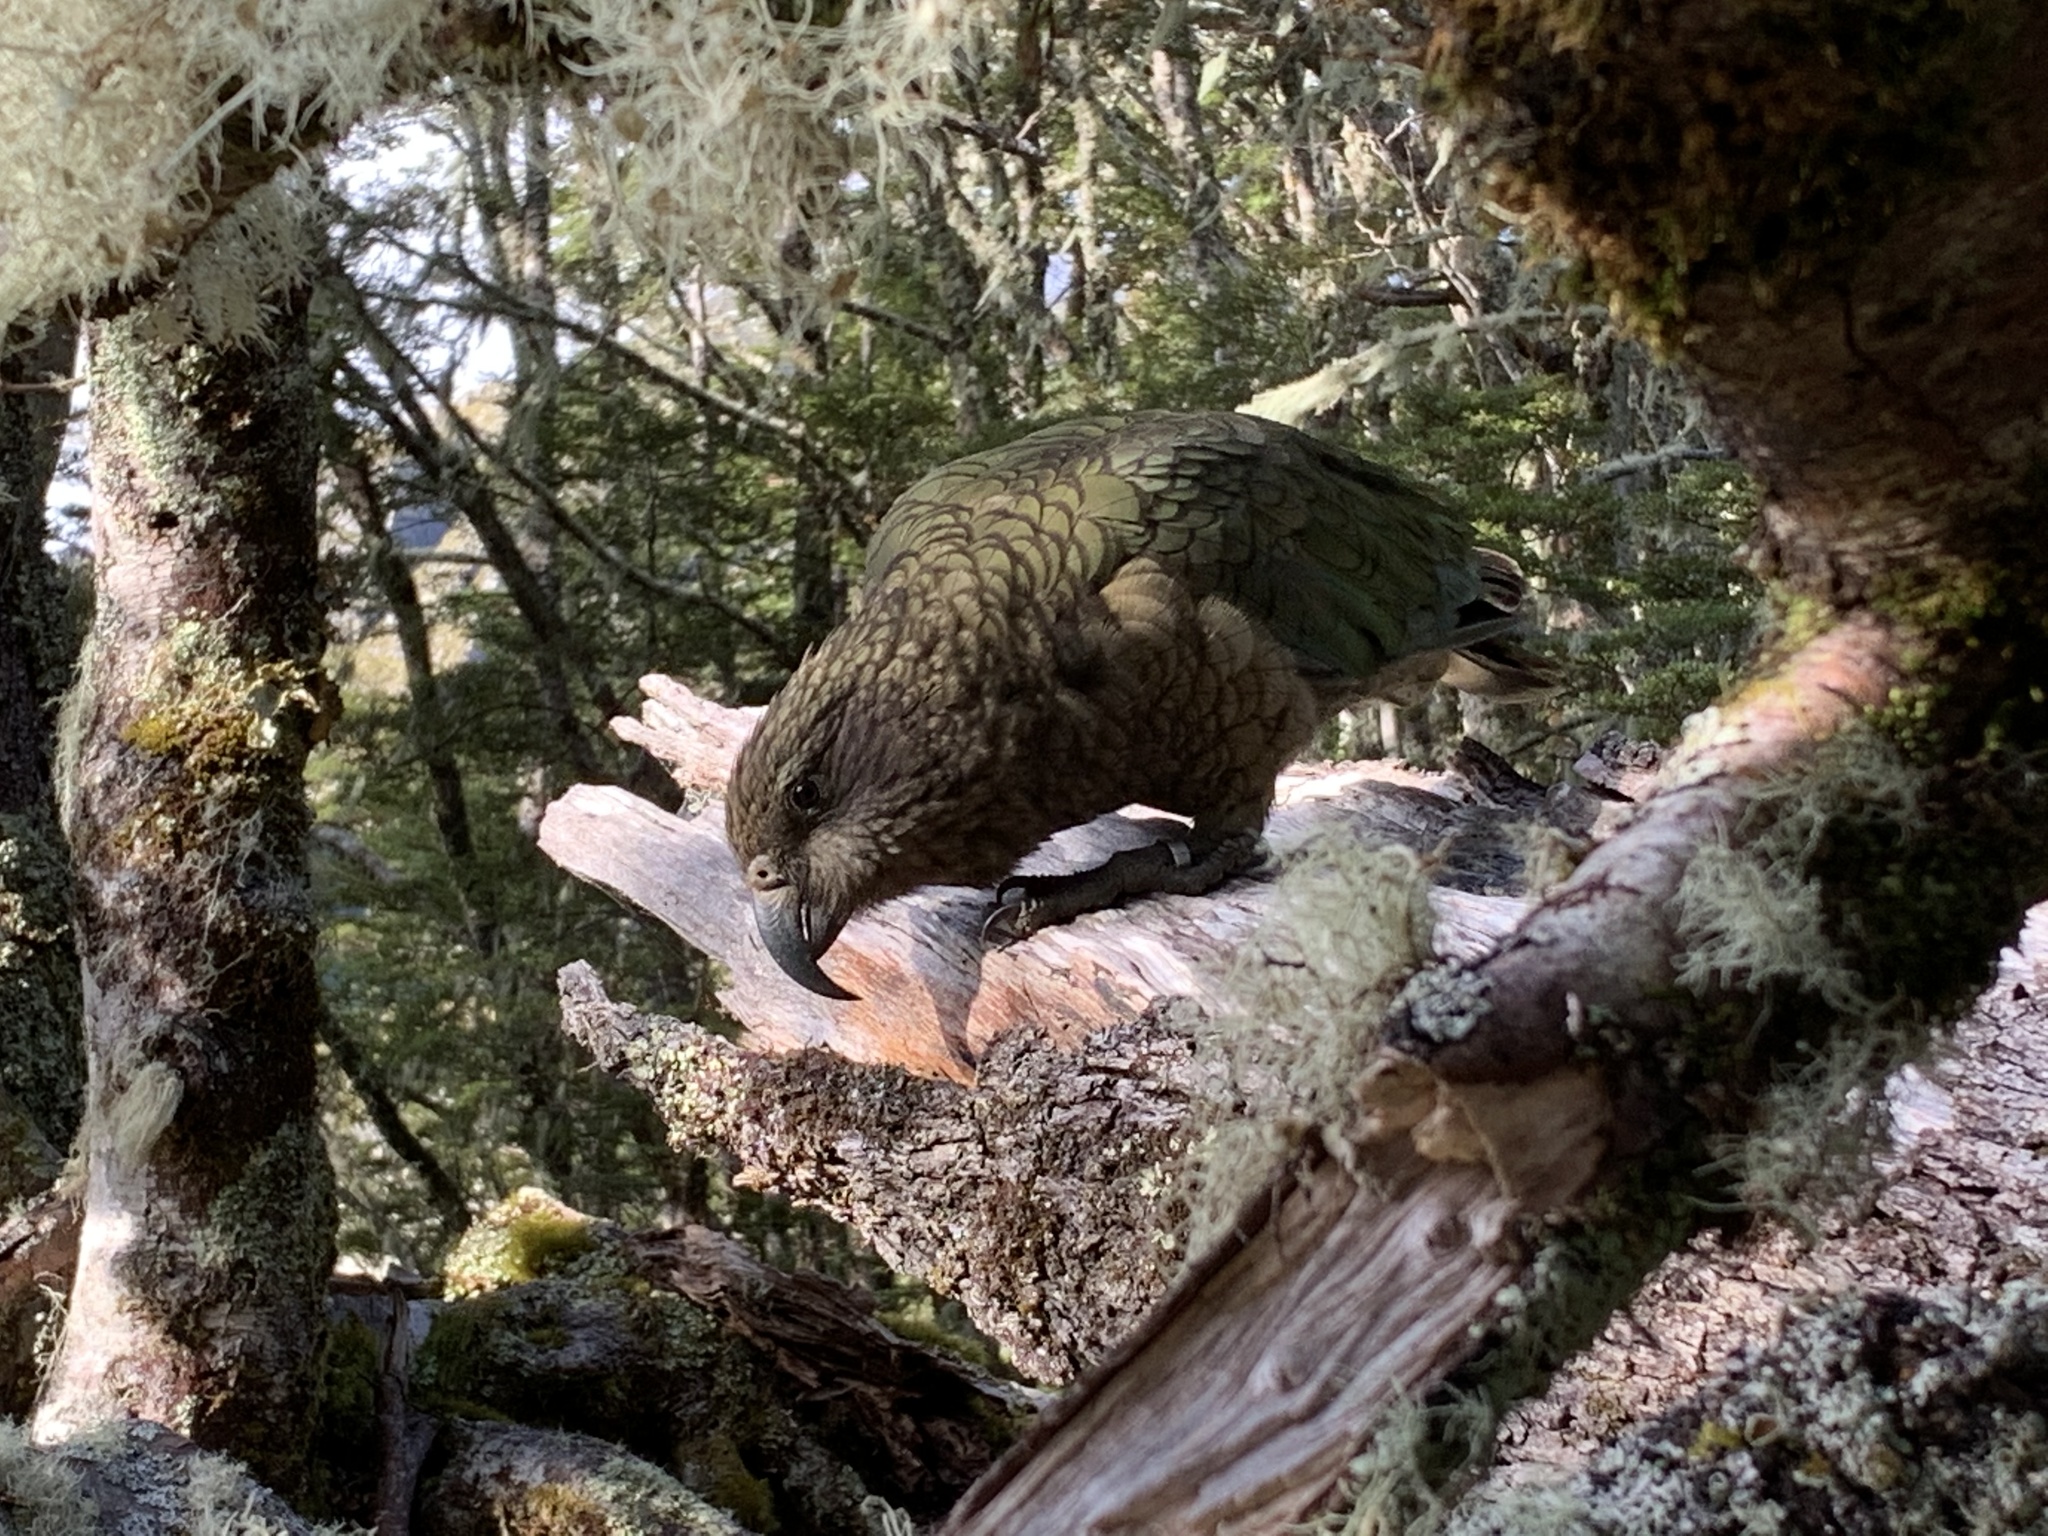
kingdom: Animalia
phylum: Chordata
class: Aves
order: Psittaciformes
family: Psittacidae
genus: Nestor
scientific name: Nestor notabilis
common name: Kea
